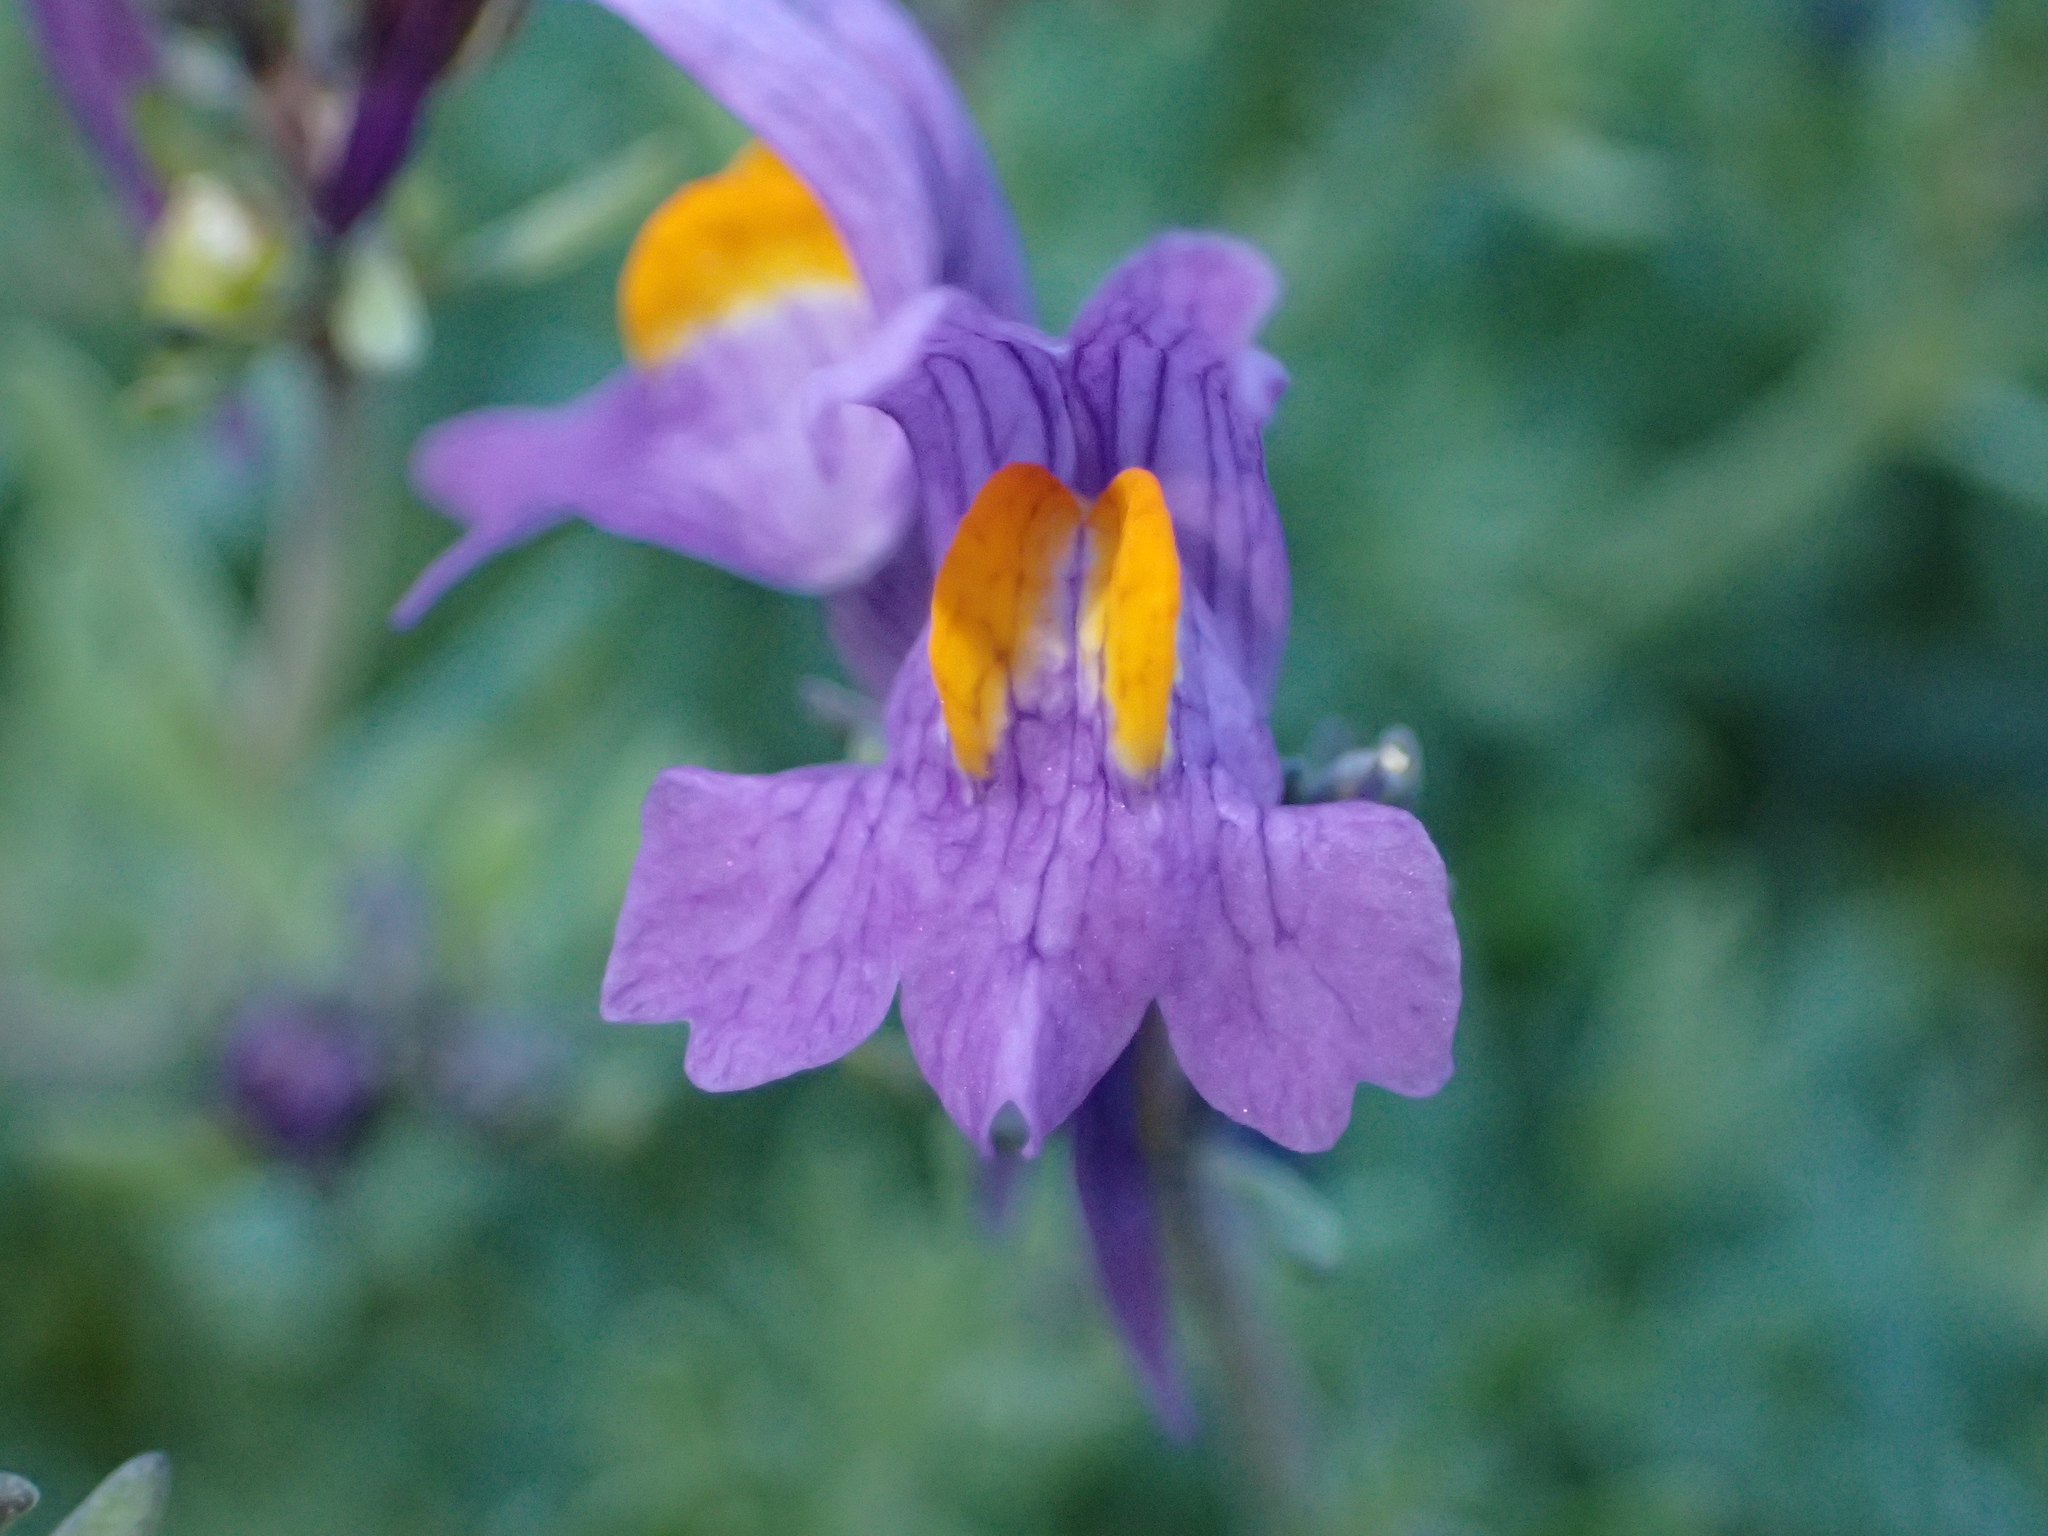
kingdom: Plantae
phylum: Tracheophyta
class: Magnoliopsida
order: Lamiales
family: Plantaginaceae
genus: Linaria
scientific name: Linaria alpina
